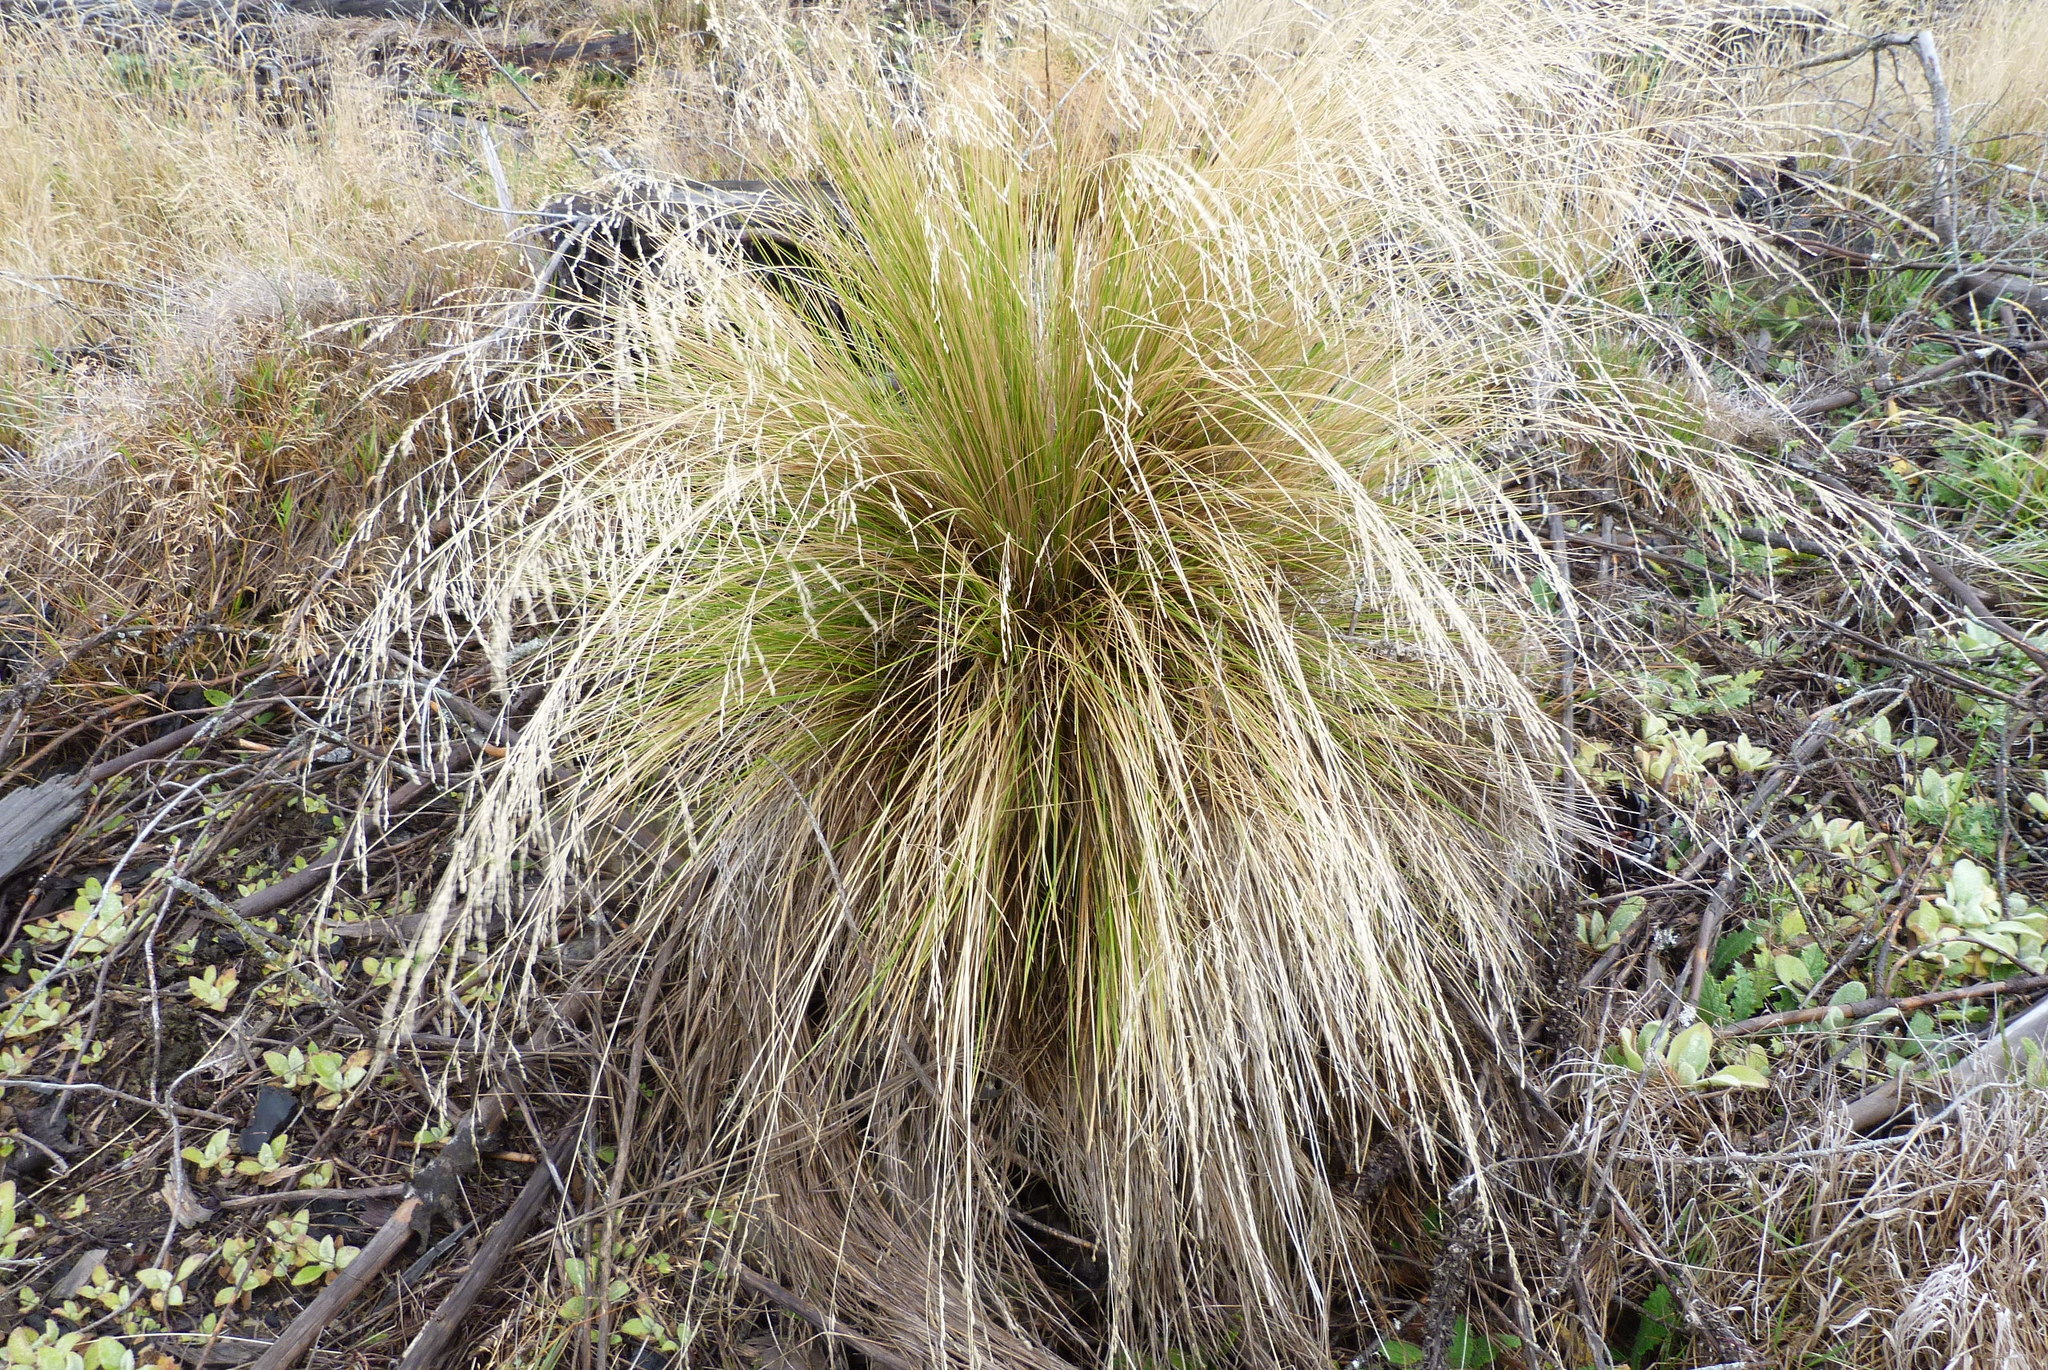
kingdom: Plantae
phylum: Tracheophyta
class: Liliopsida
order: Poales
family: Poaceae
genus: Poa
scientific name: Poa cita
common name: Silver tussock
